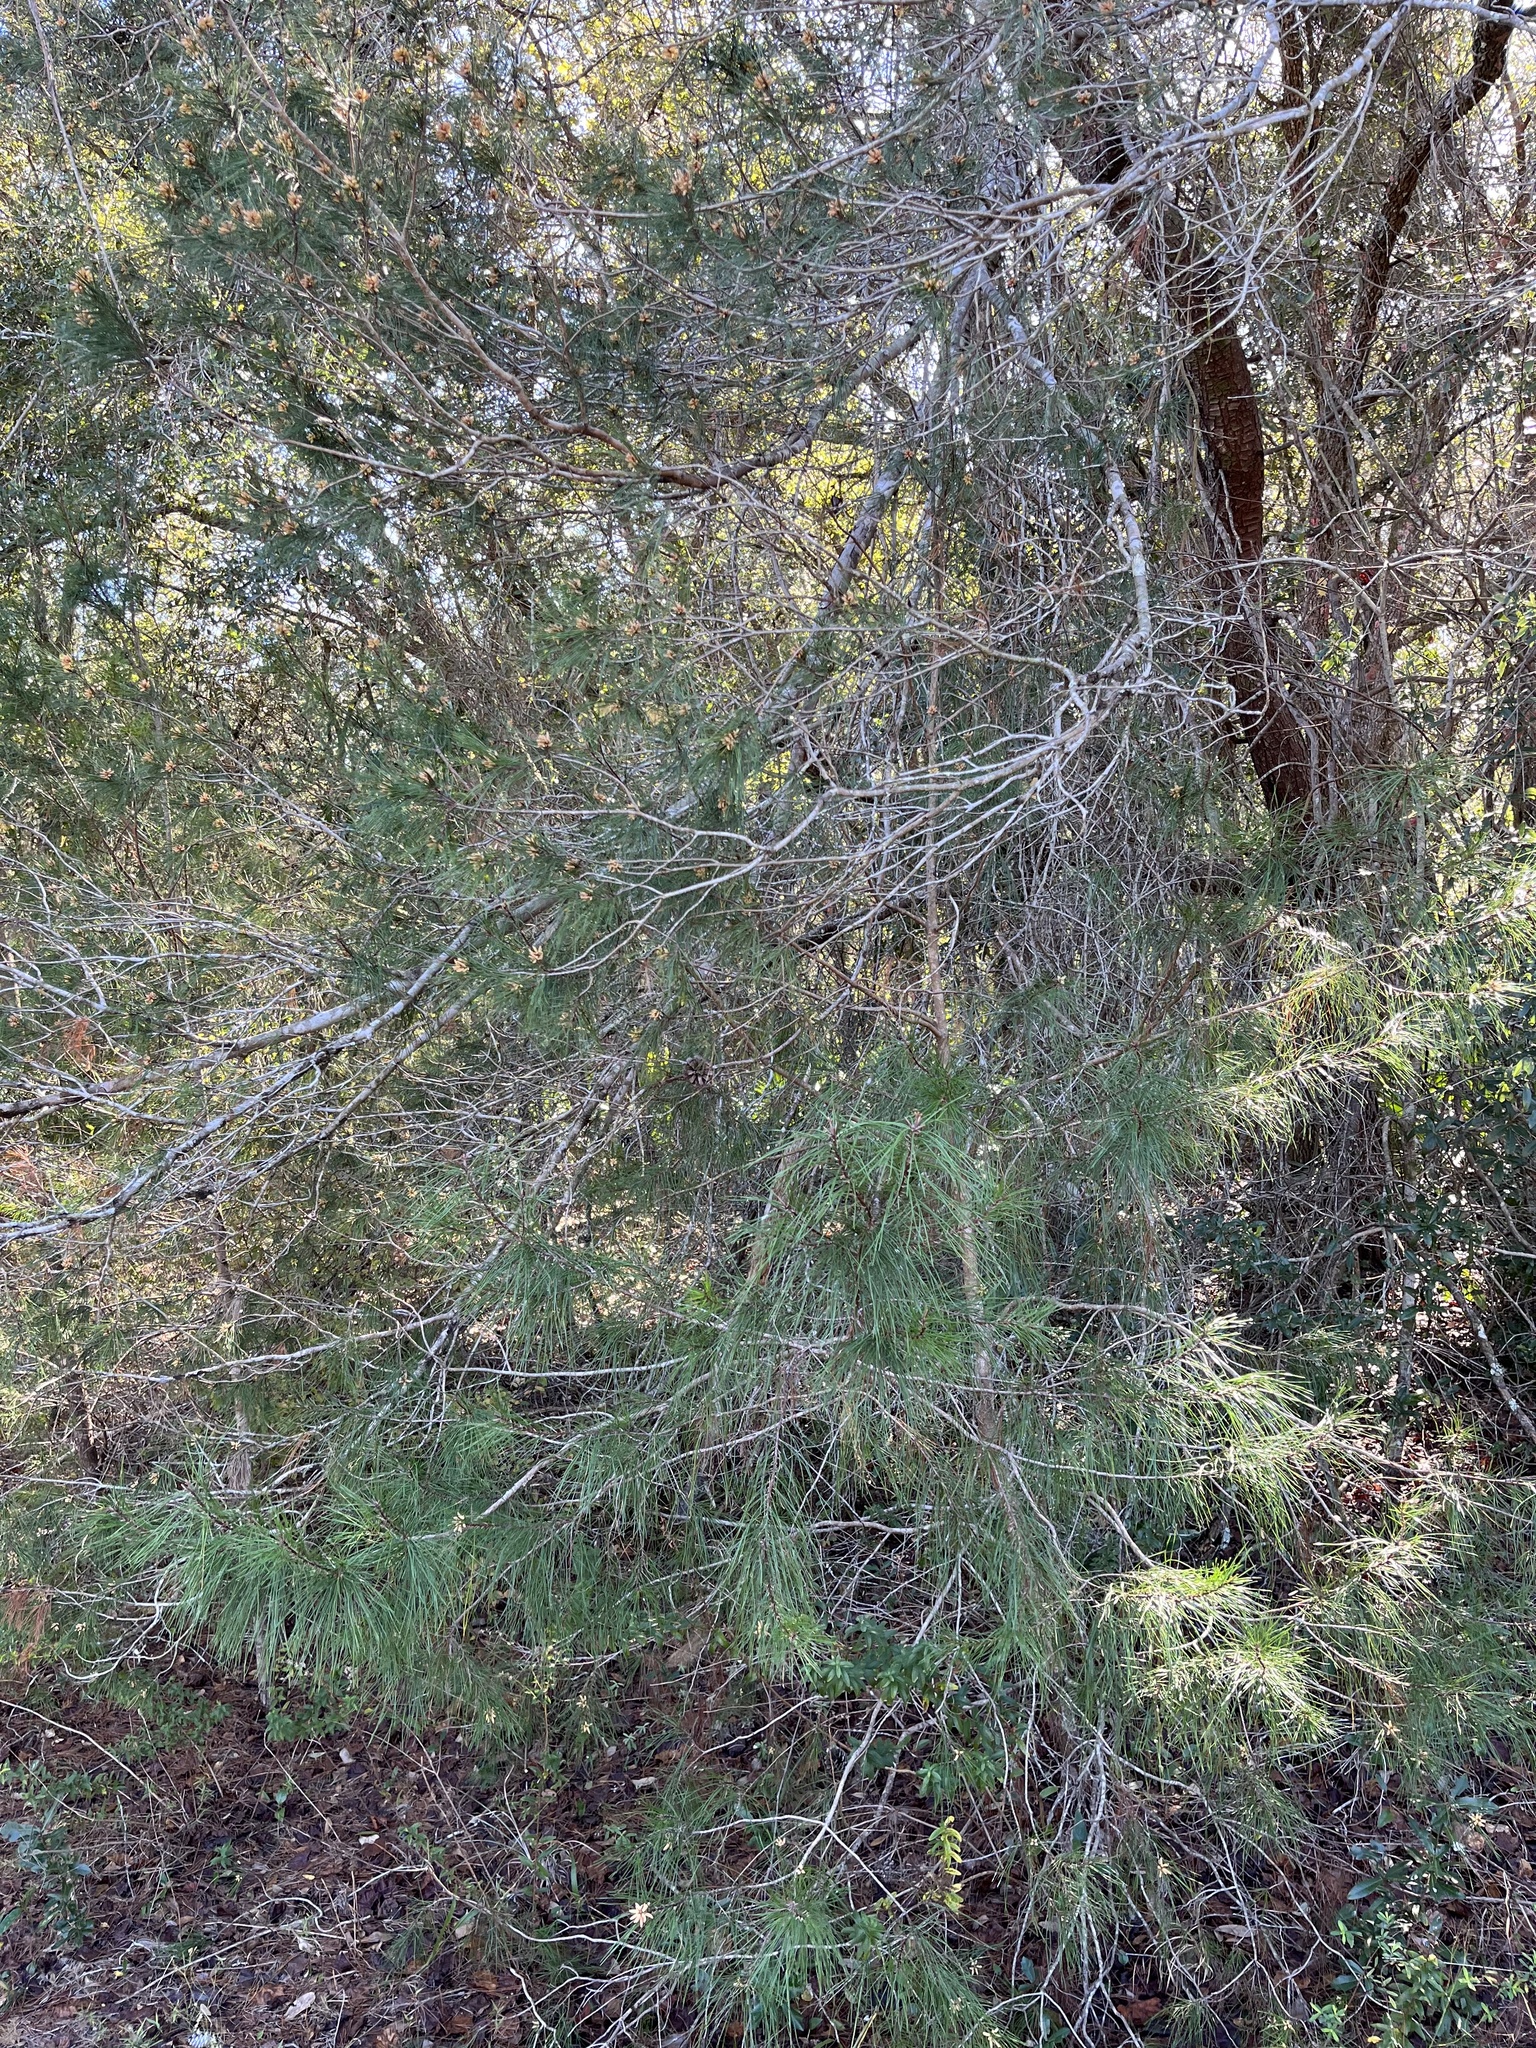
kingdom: Plantae
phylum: Tracheophyta
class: Pinopsida
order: Pinales
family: Pinaceae
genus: Pinus
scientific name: Pinus clausa
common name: Sand pine
